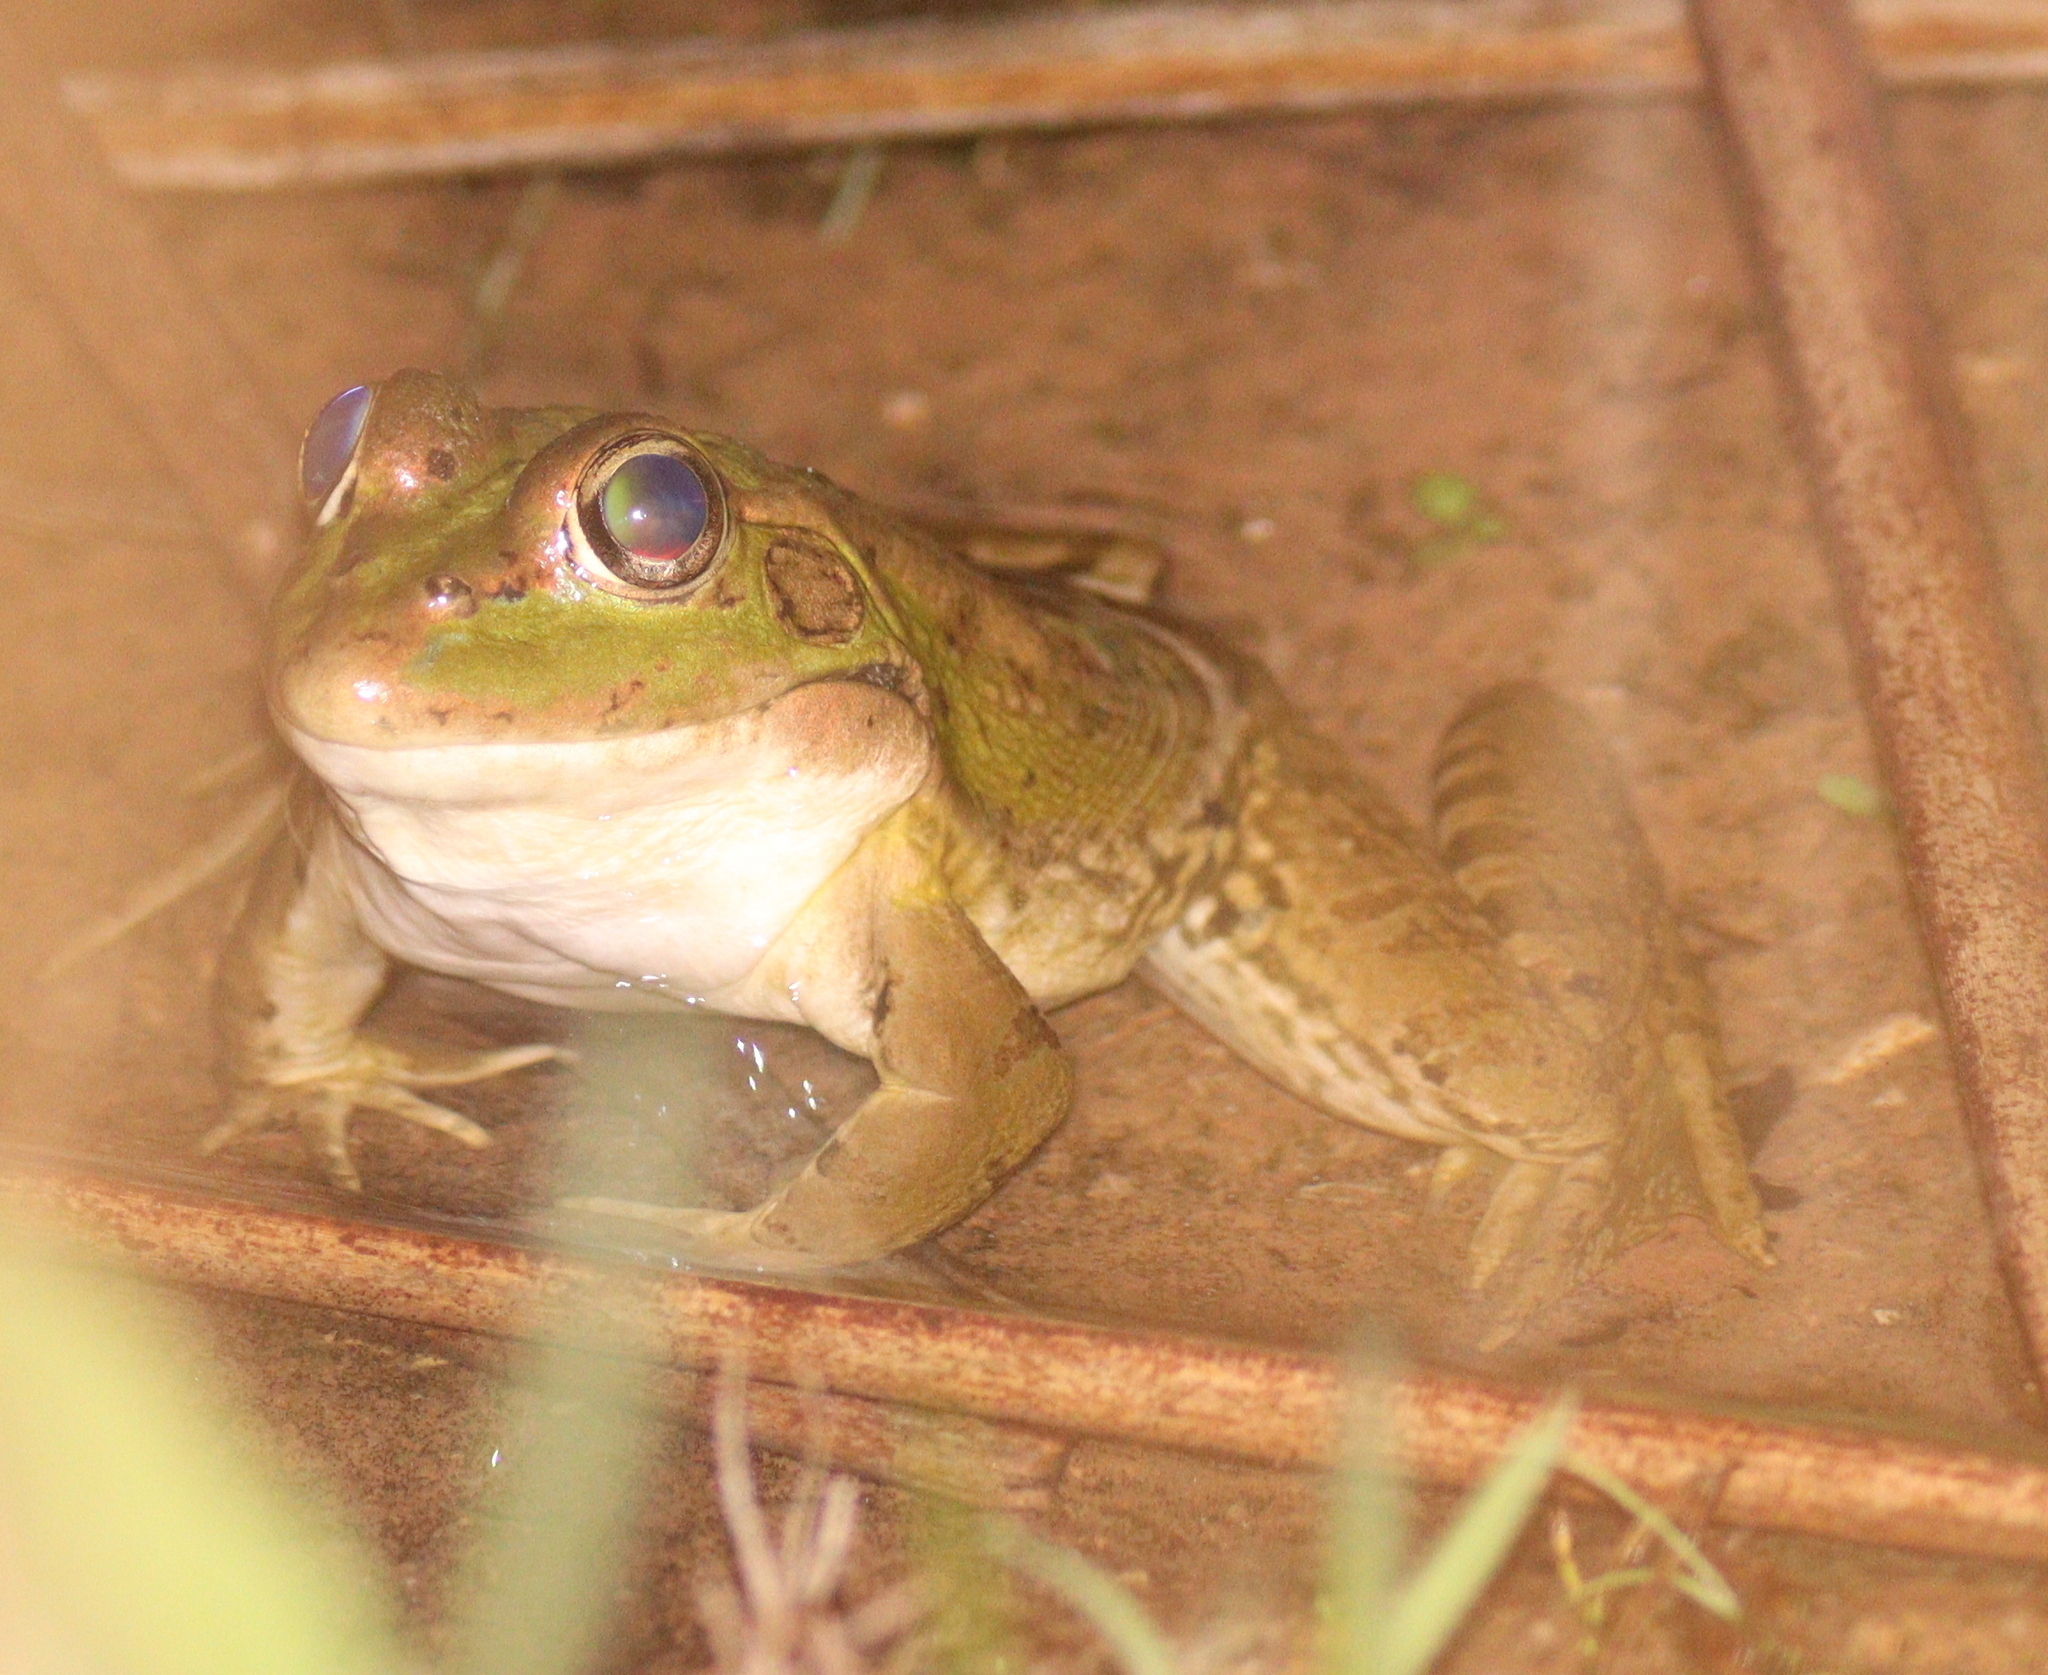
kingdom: Animalia
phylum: Chordata
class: Amphibia
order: Anura
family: Ranidae
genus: Pelophylax
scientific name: Pelophylax perezi
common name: Perez's frog
